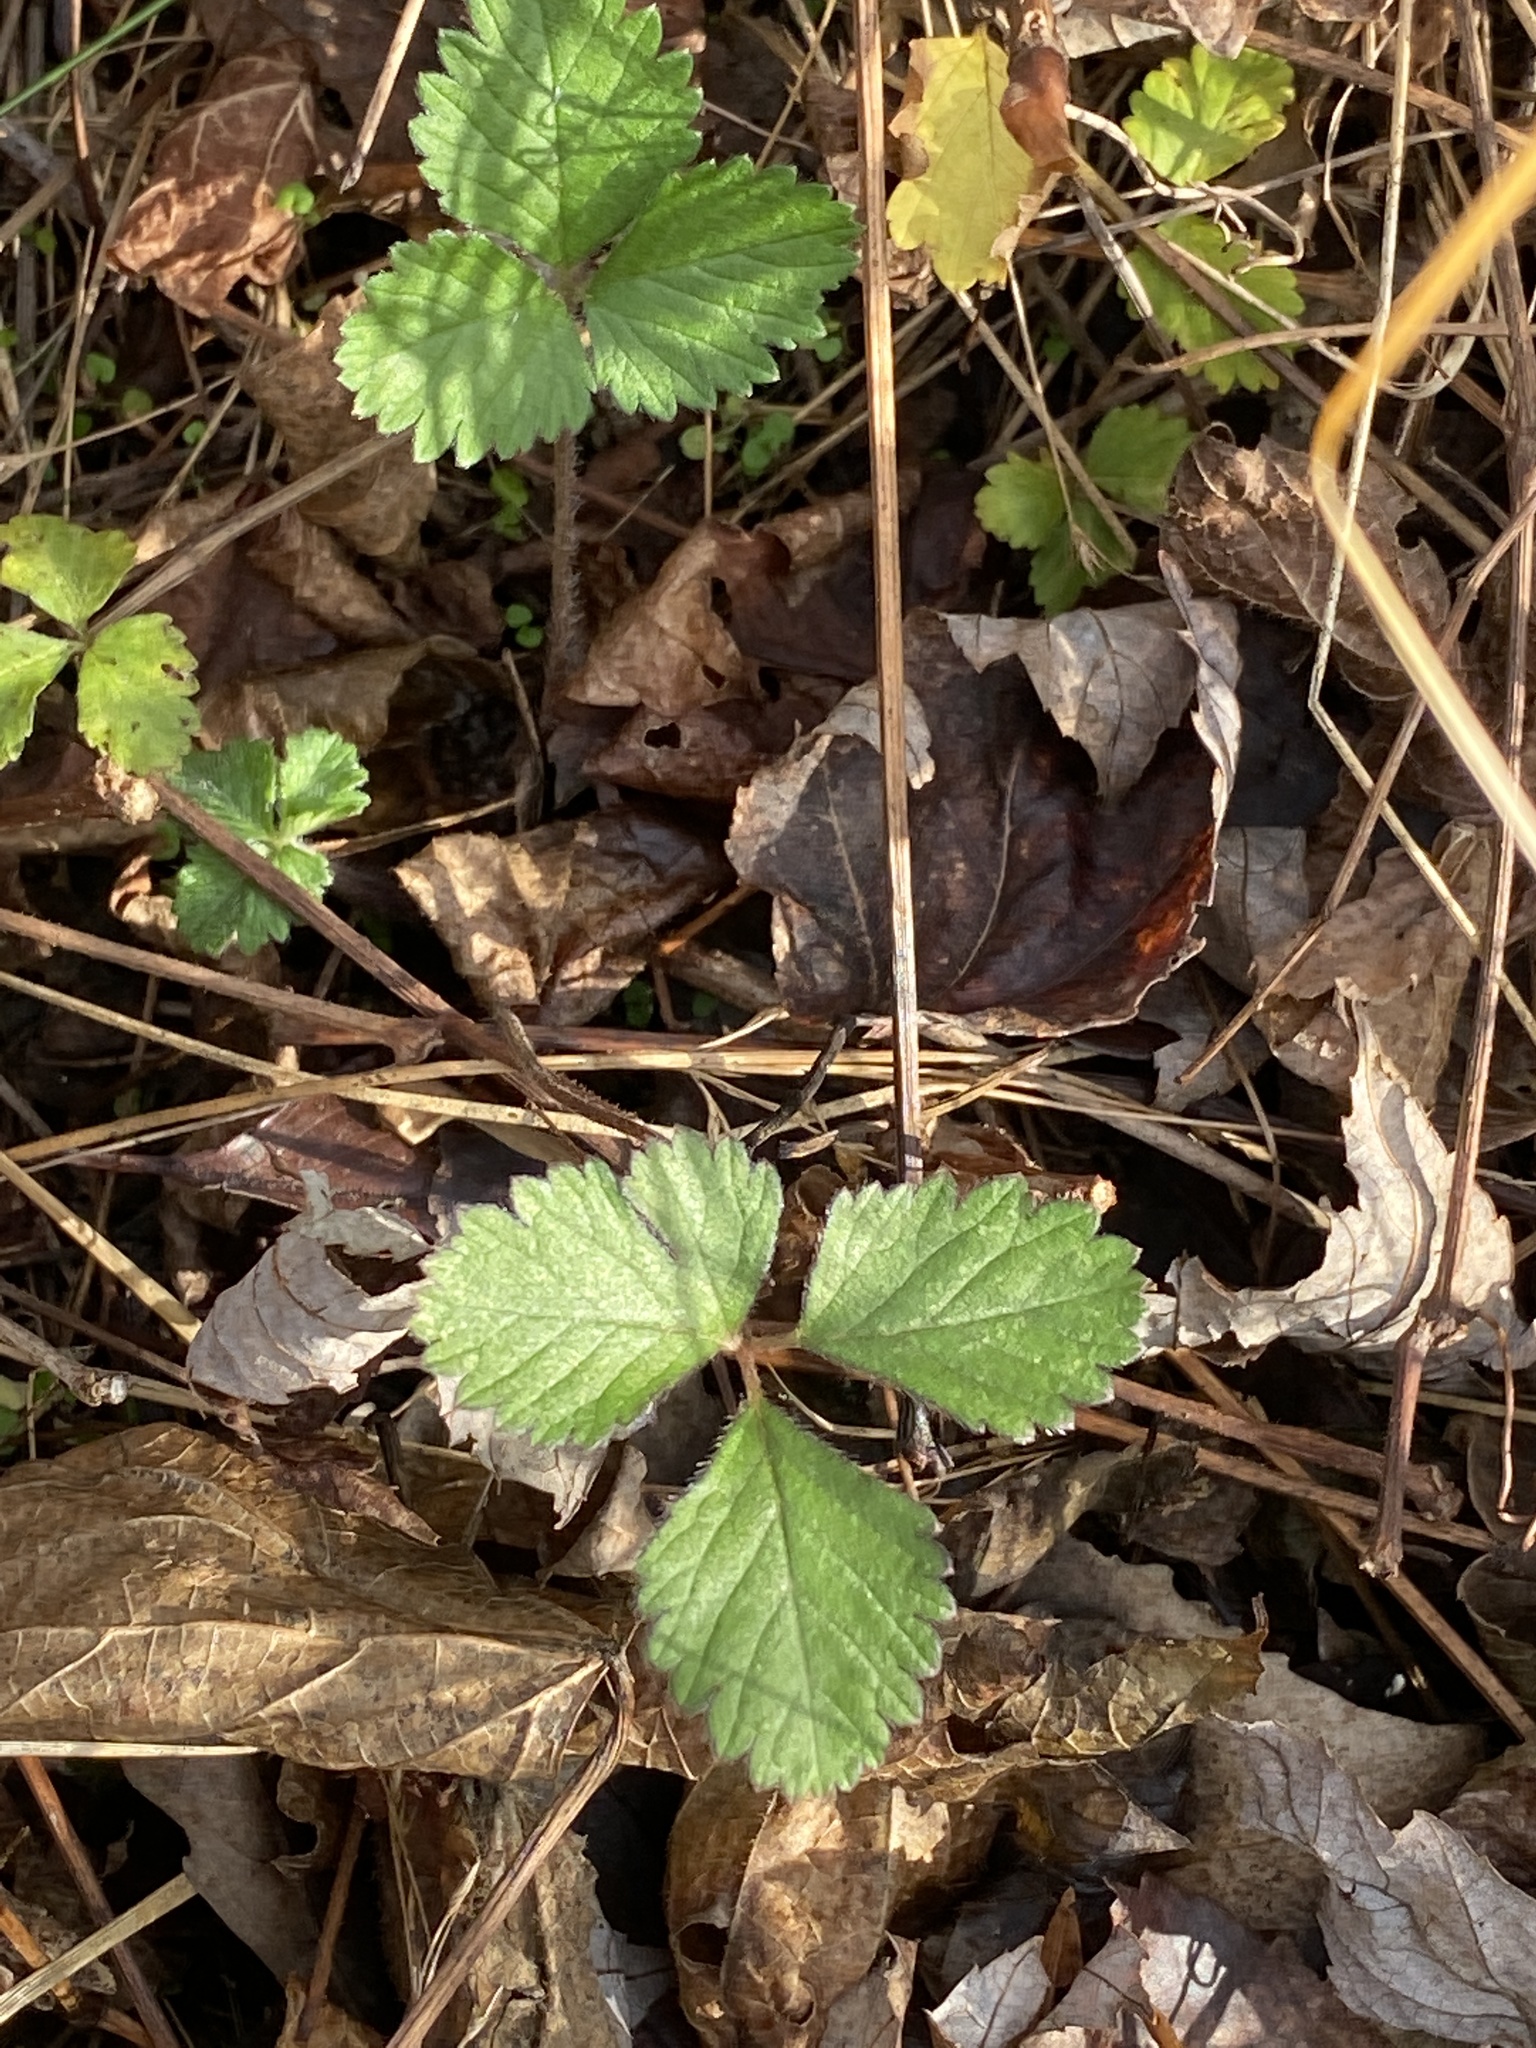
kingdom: Plantae
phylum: Tracheophyta
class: Magnoliopsida
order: Rosales
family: Rosaceae
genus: Potentilla
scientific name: Potentilla indica
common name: Yellow-flowered strawberry
